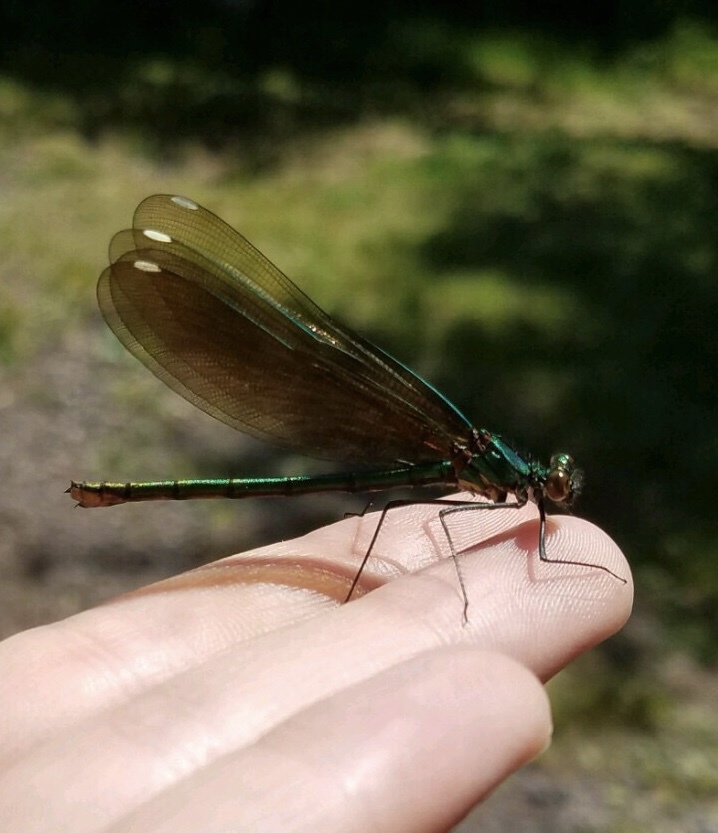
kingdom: Animalia
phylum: Arthropoda
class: Insecta
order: Odonata
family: Calopterygidae
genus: Calopteryx
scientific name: Calopteryx aequabilis
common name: River jewelwing
